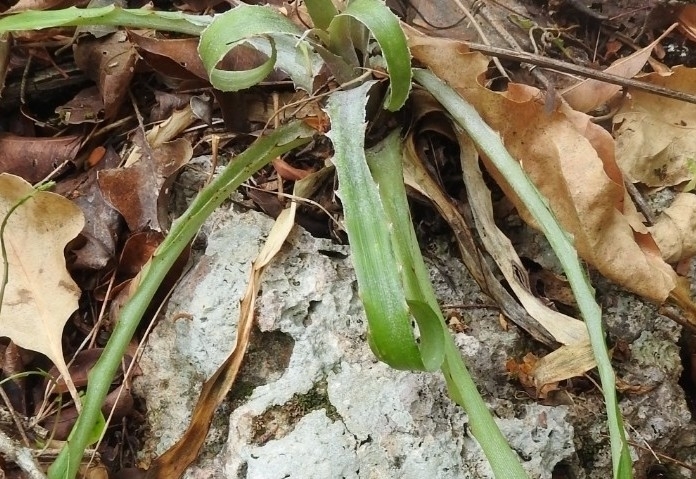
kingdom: Plantae
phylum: Tracheophyta
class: Liliopsida
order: Poales
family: Bromeliaceae
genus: Bromelia
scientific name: Bromelia pinguin
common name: Pinguin
